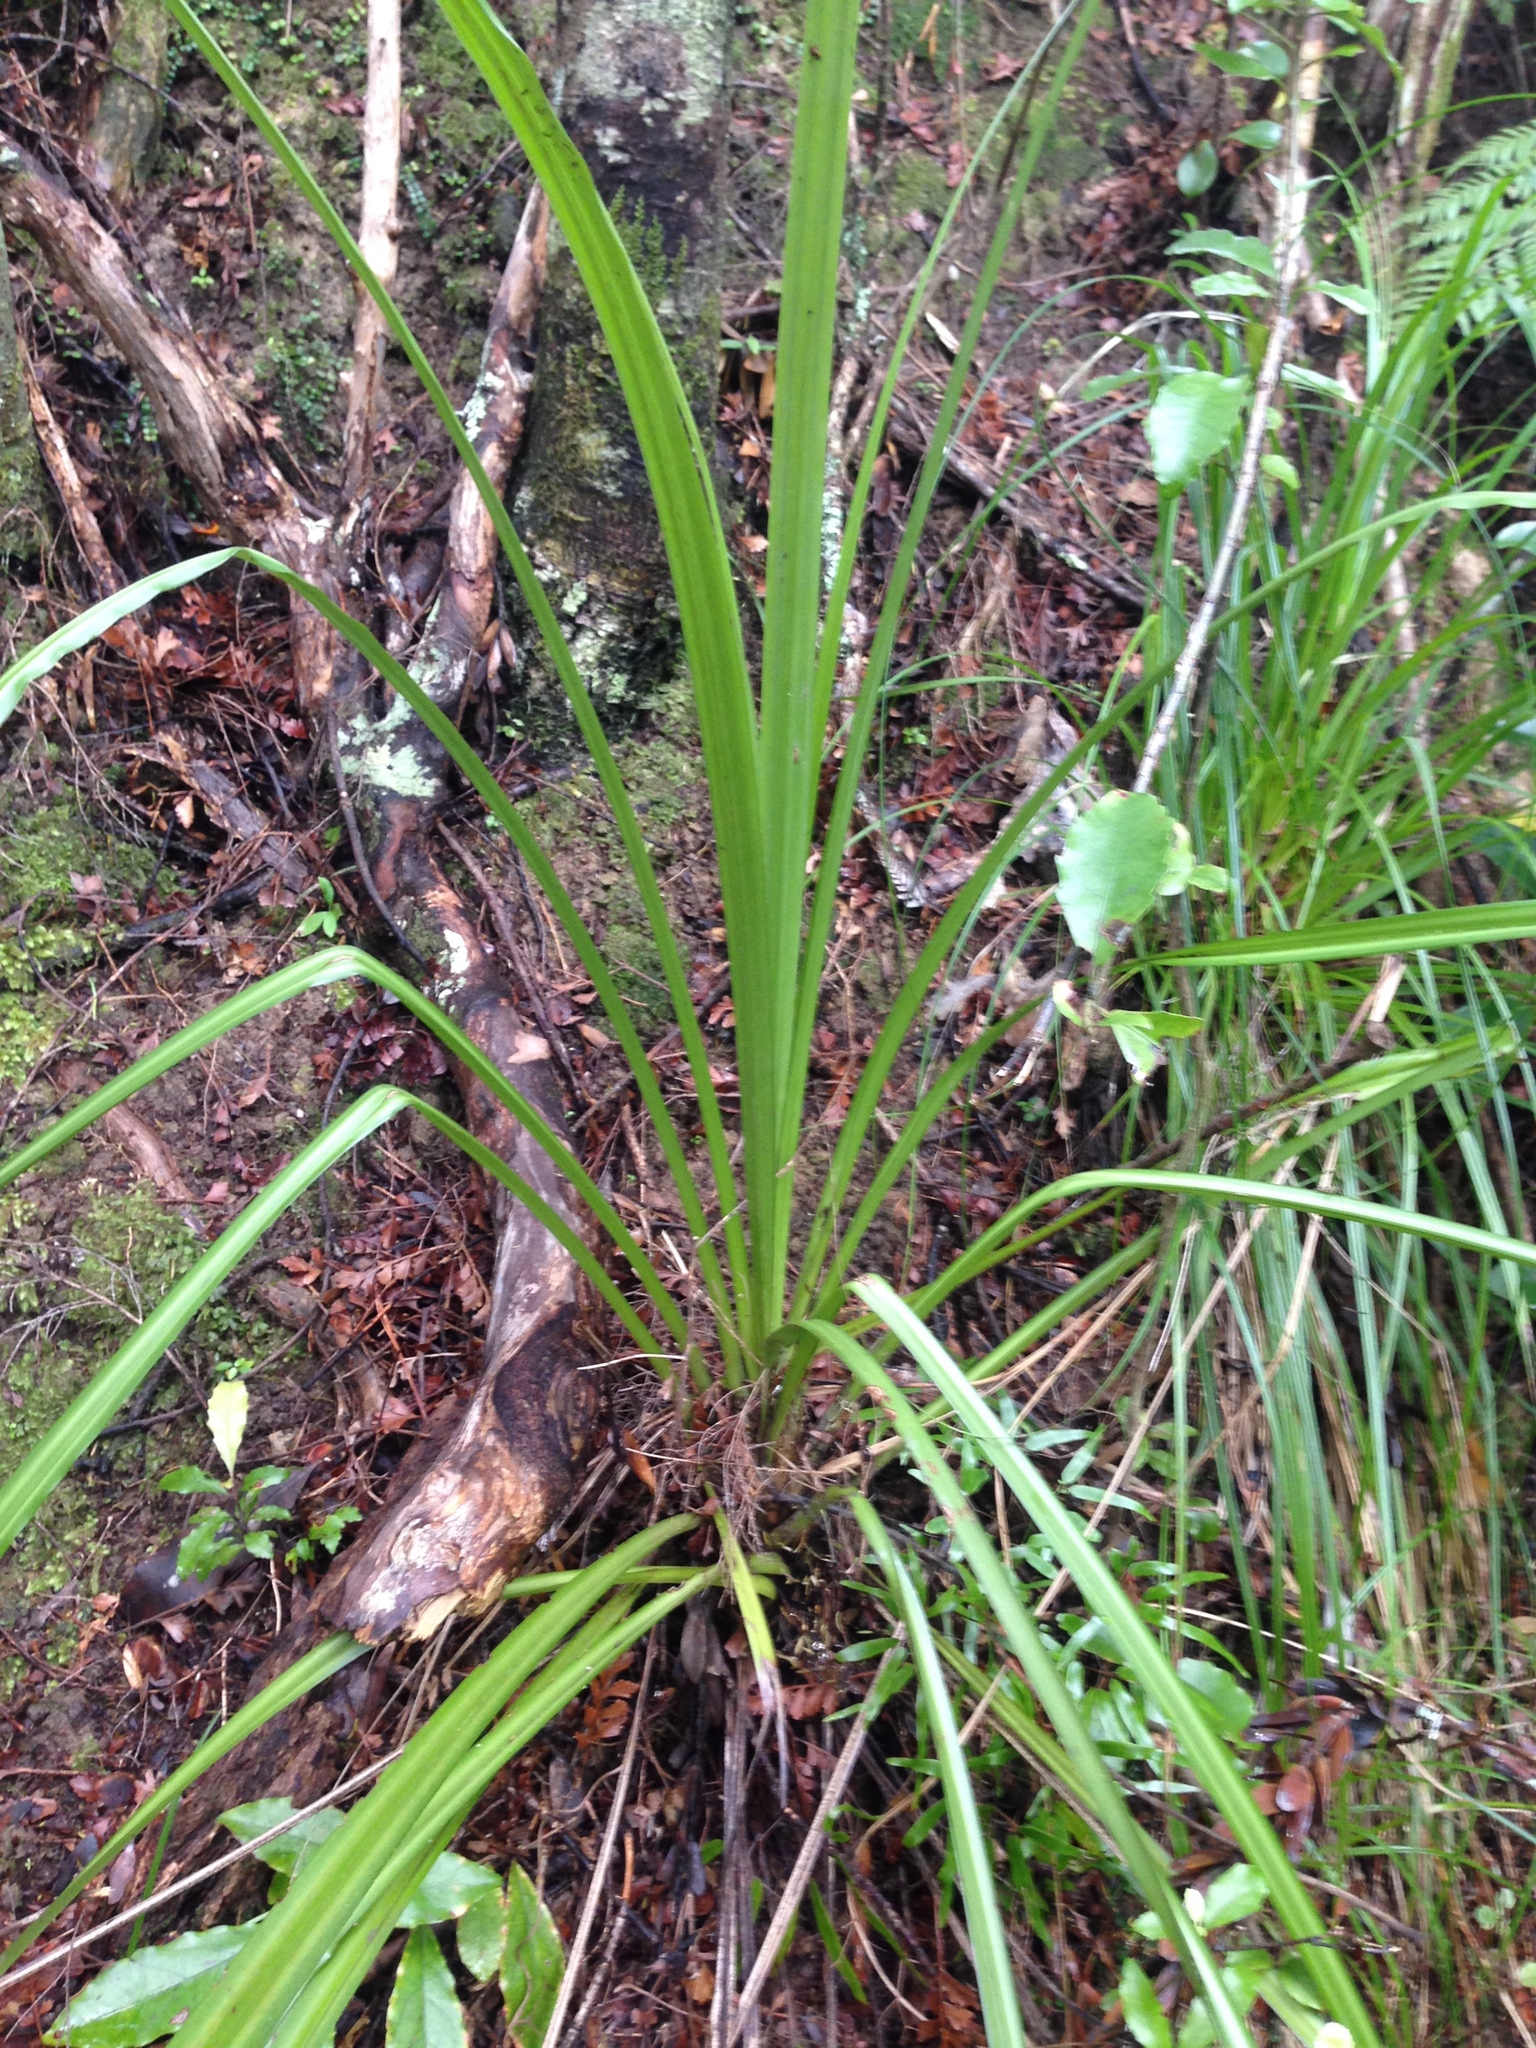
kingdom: Plantae
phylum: Tracheophyta
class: Liliopsida
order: Asparagales
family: Asteliaceae
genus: Astelia
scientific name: Astelia trinervia
